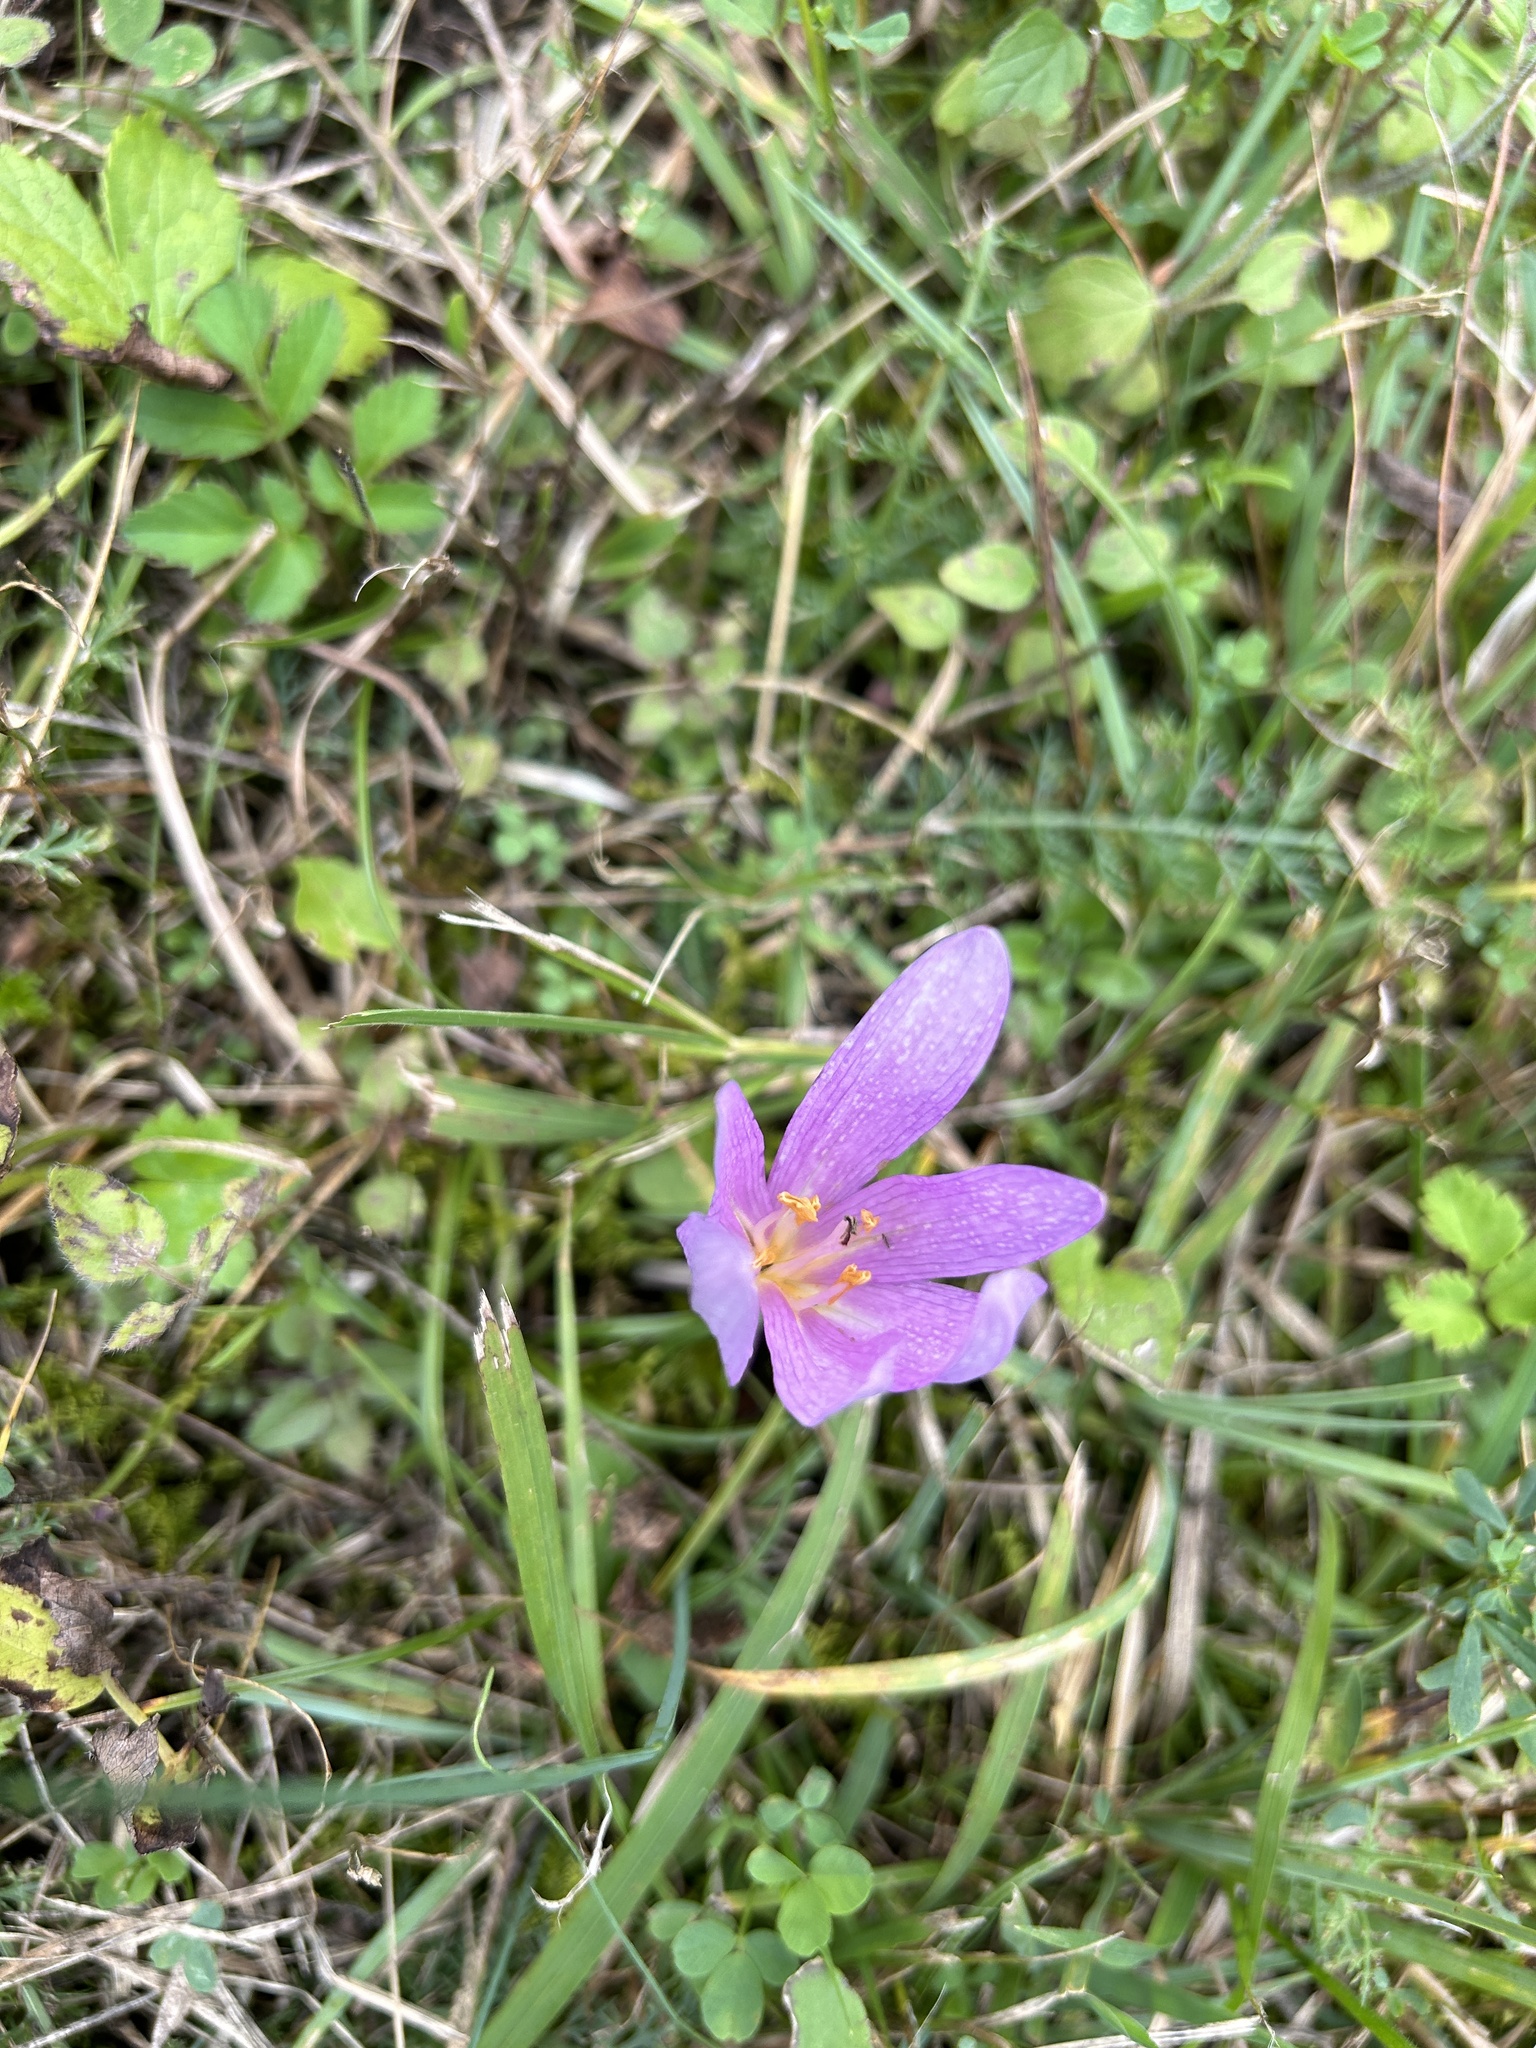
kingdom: Plantae
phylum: Tracheophyta
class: Liliopsida
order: Liliales
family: Colchicaceae
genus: Colchicum
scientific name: Colchicum autumnale
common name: Autumn crocus
